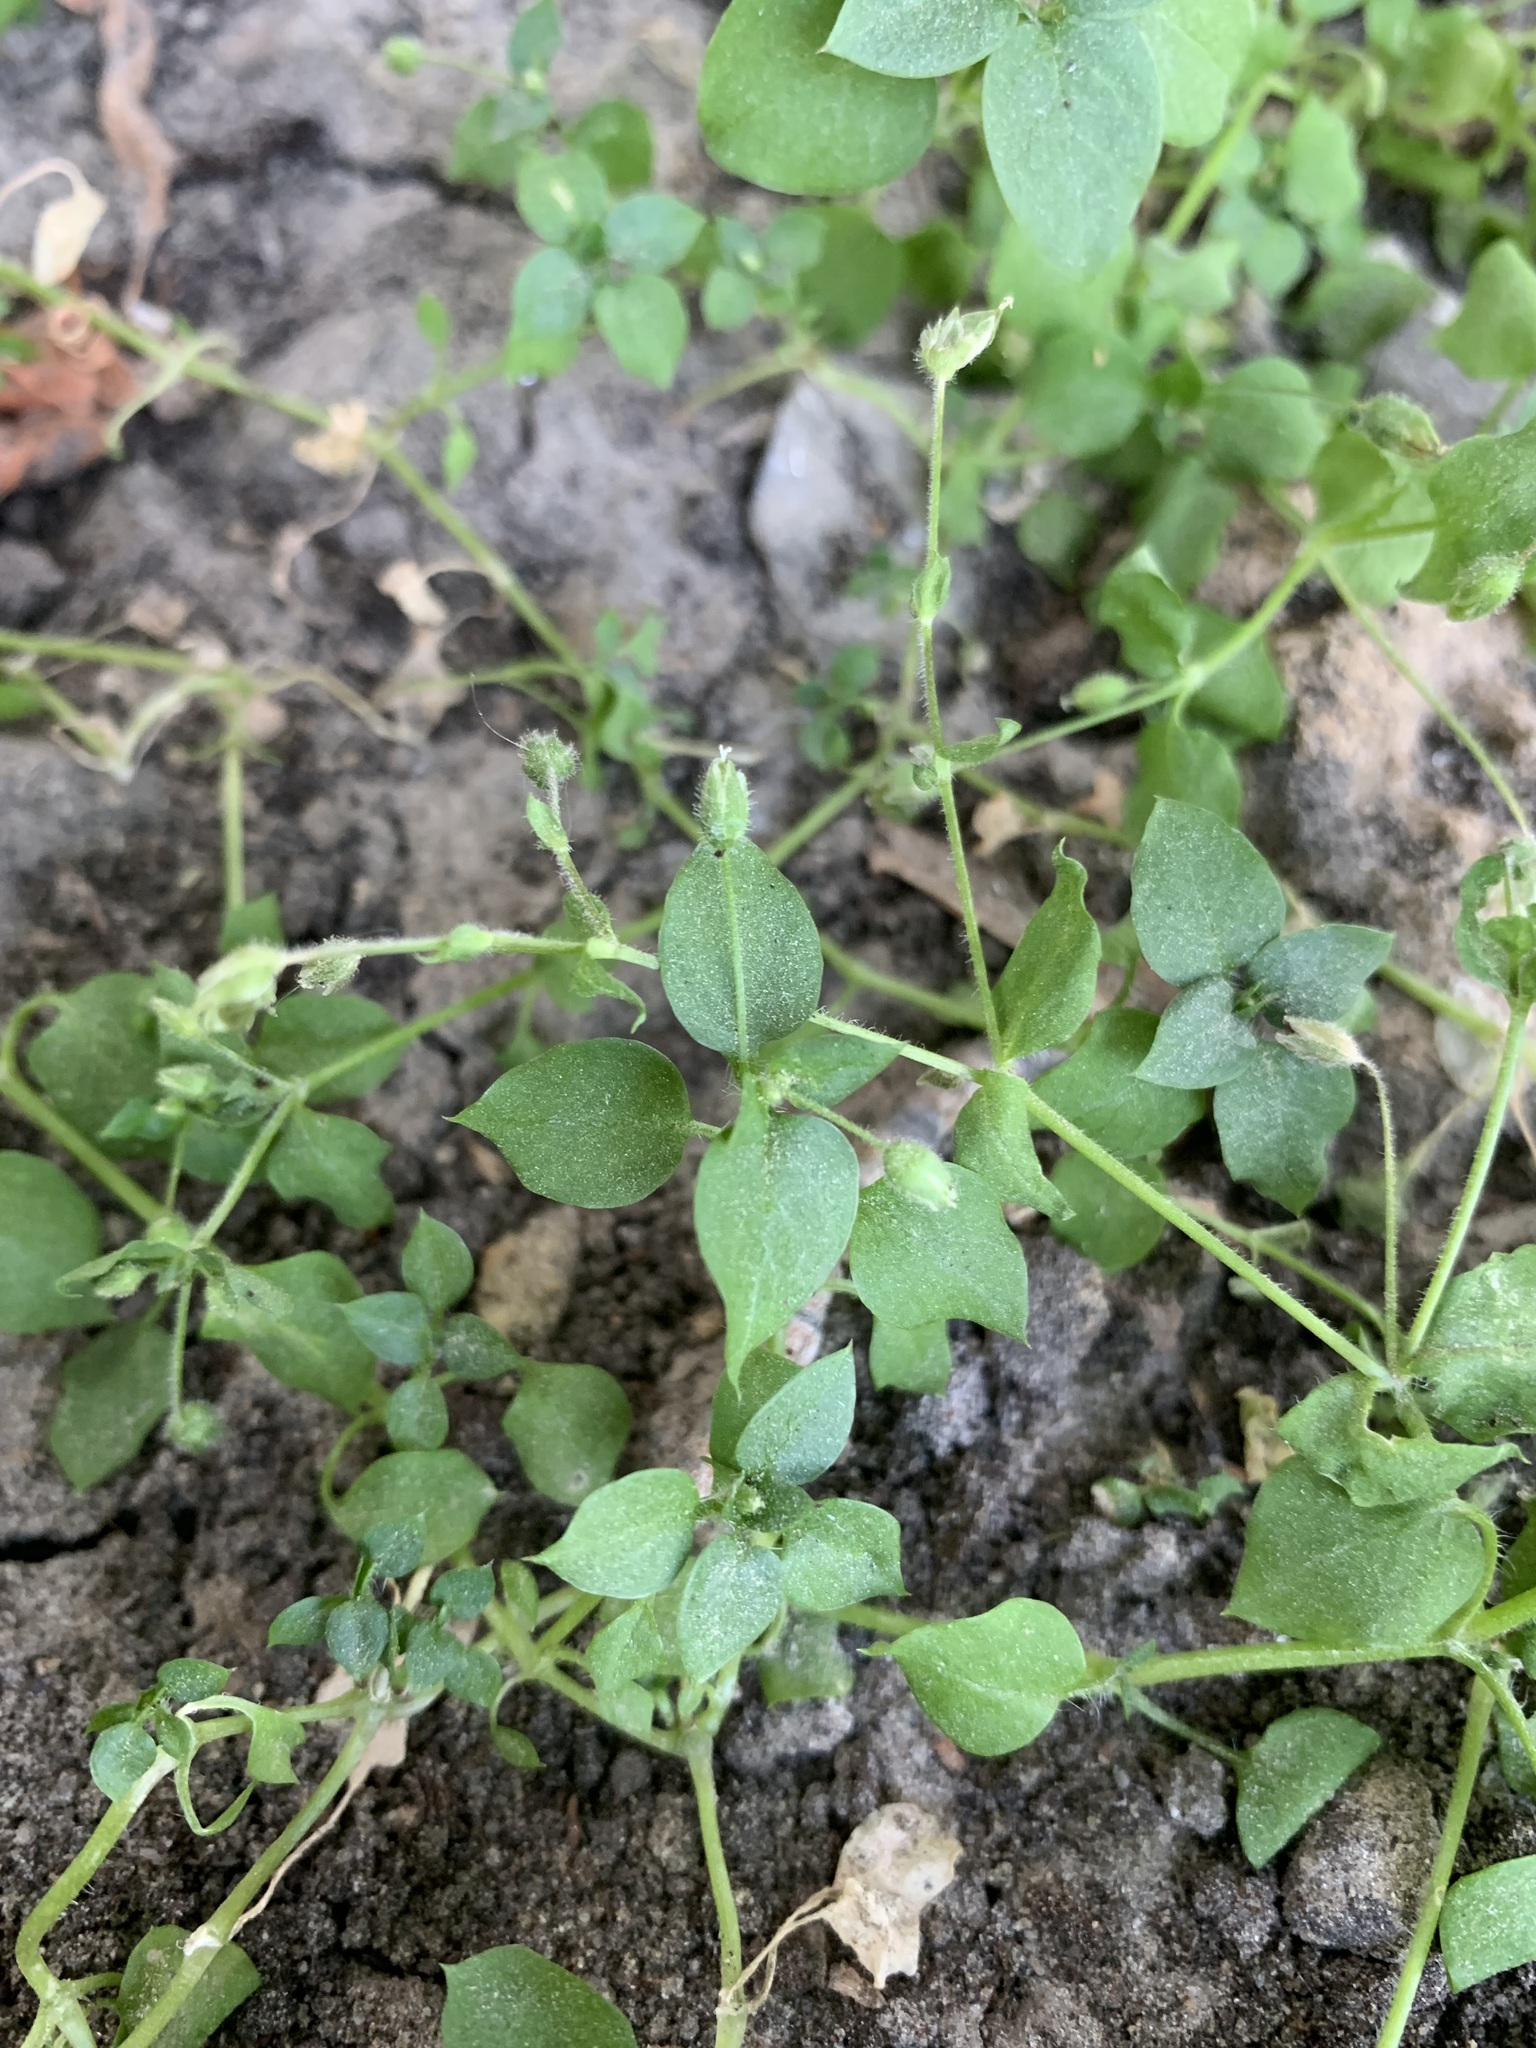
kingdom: Plantae
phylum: Tracheophyta
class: Magnoliopsida
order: Caryophyllales
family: Caryophyllaceae
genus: Stellaria
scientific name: Stellaria media
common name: Common chickweed
